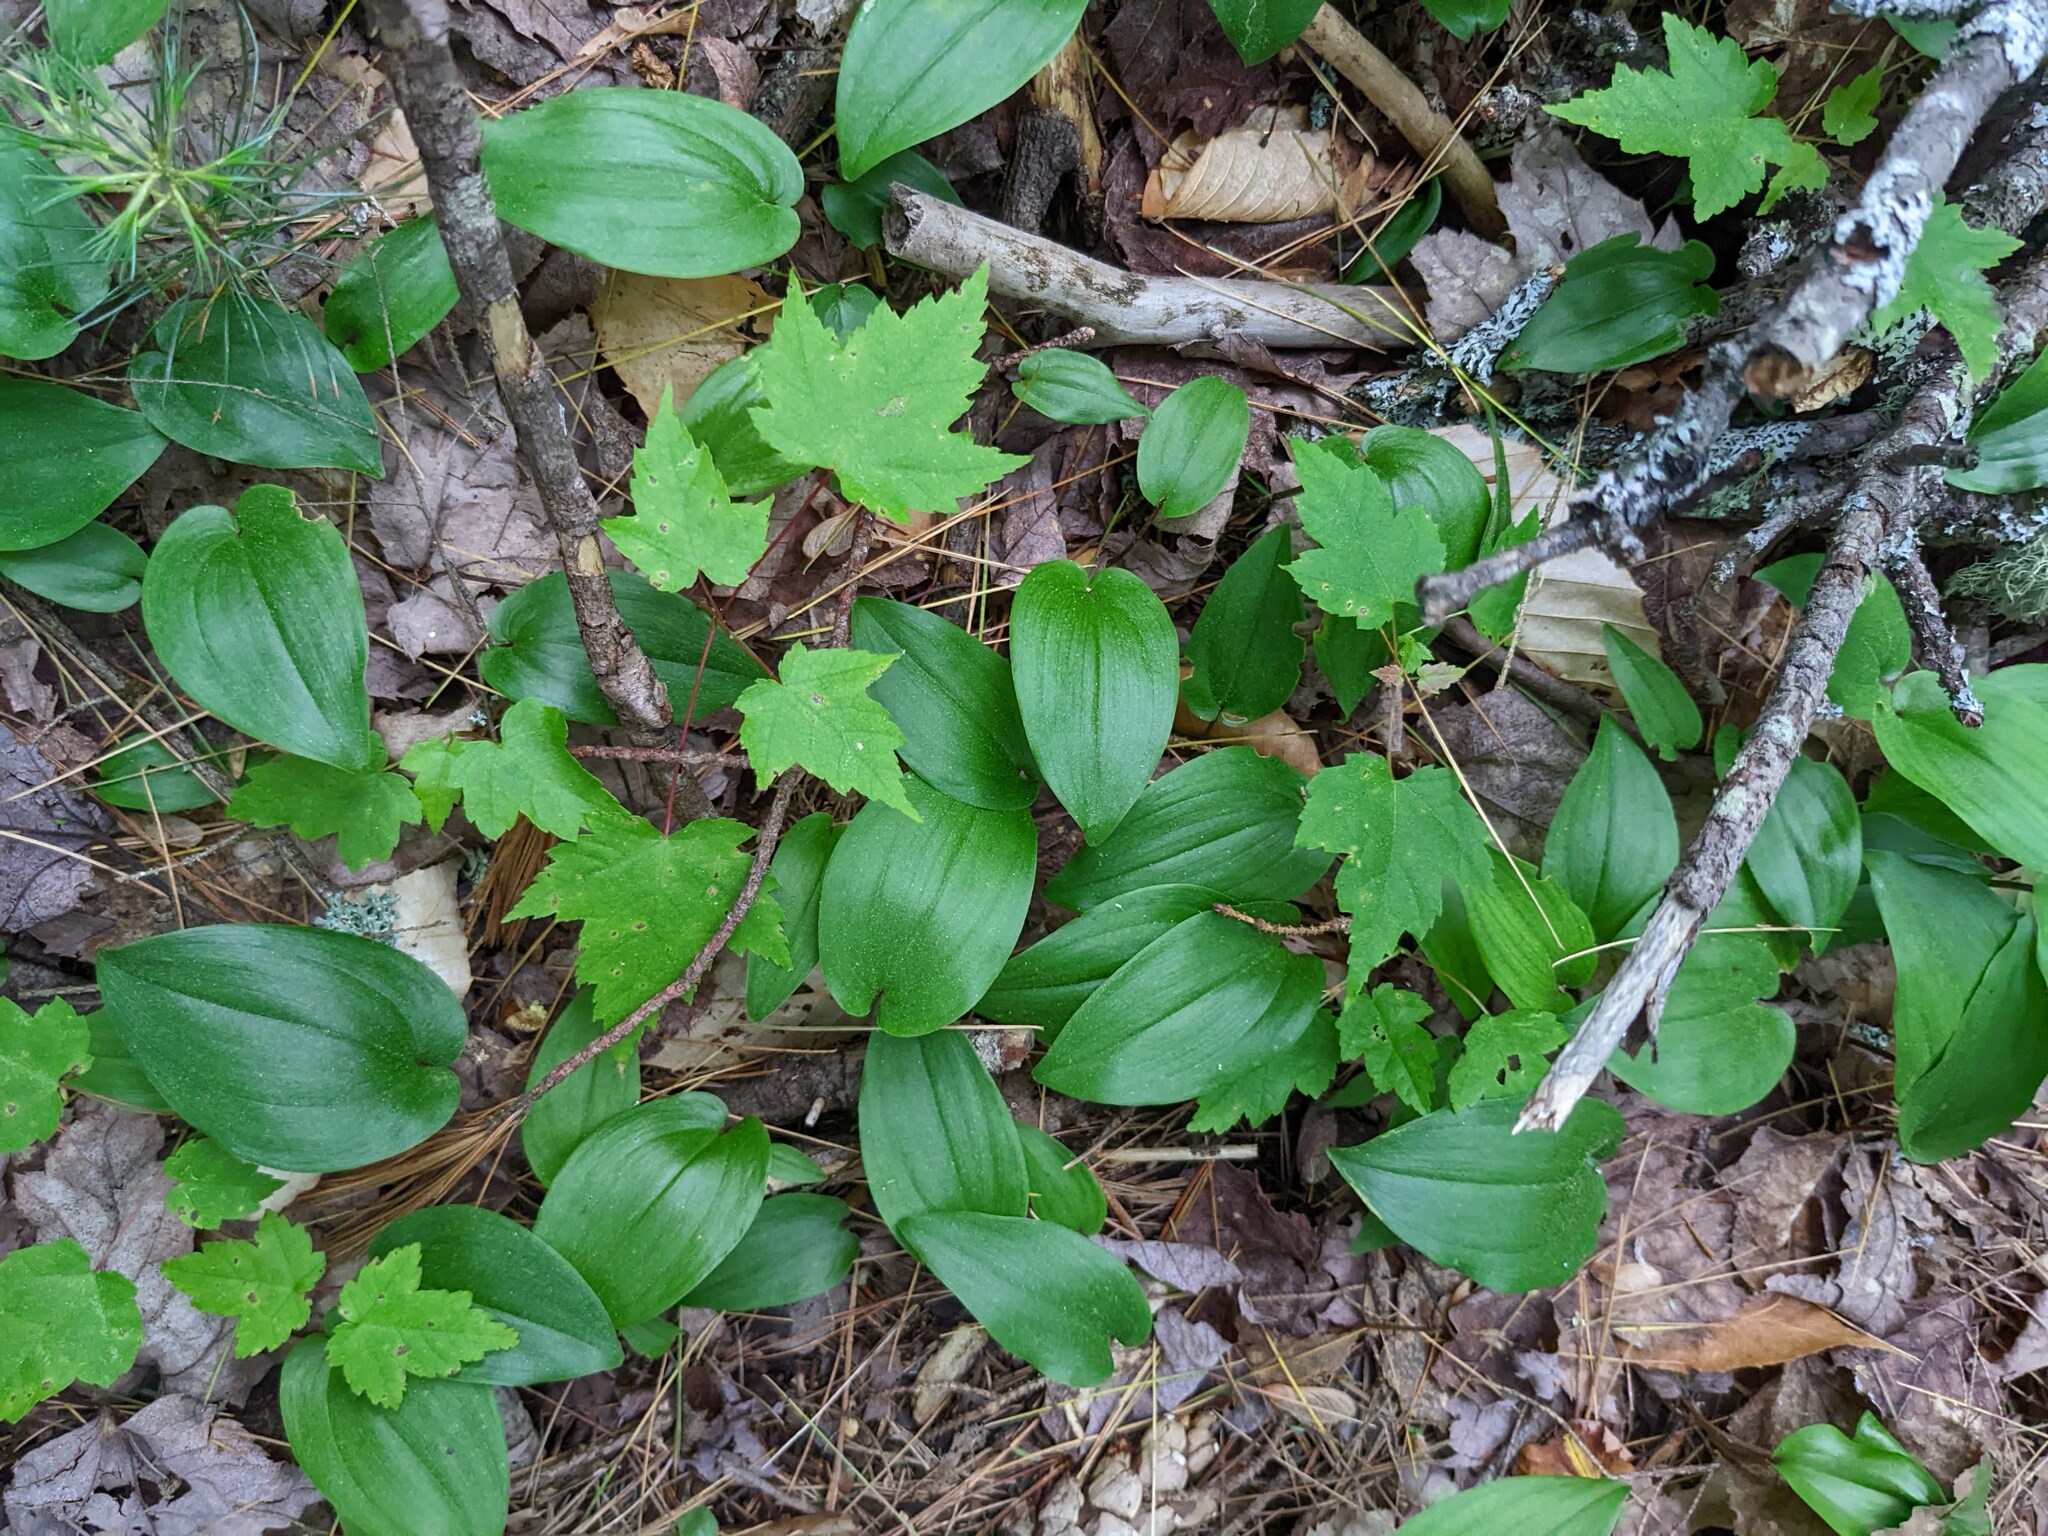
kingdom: Plantae
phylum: Tracheophyta
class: Liliopsida
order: Asparagales
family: Asparagaceae
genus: Maianthemum
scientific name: Maianthemum canadense
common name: False lily-of-the-valley
